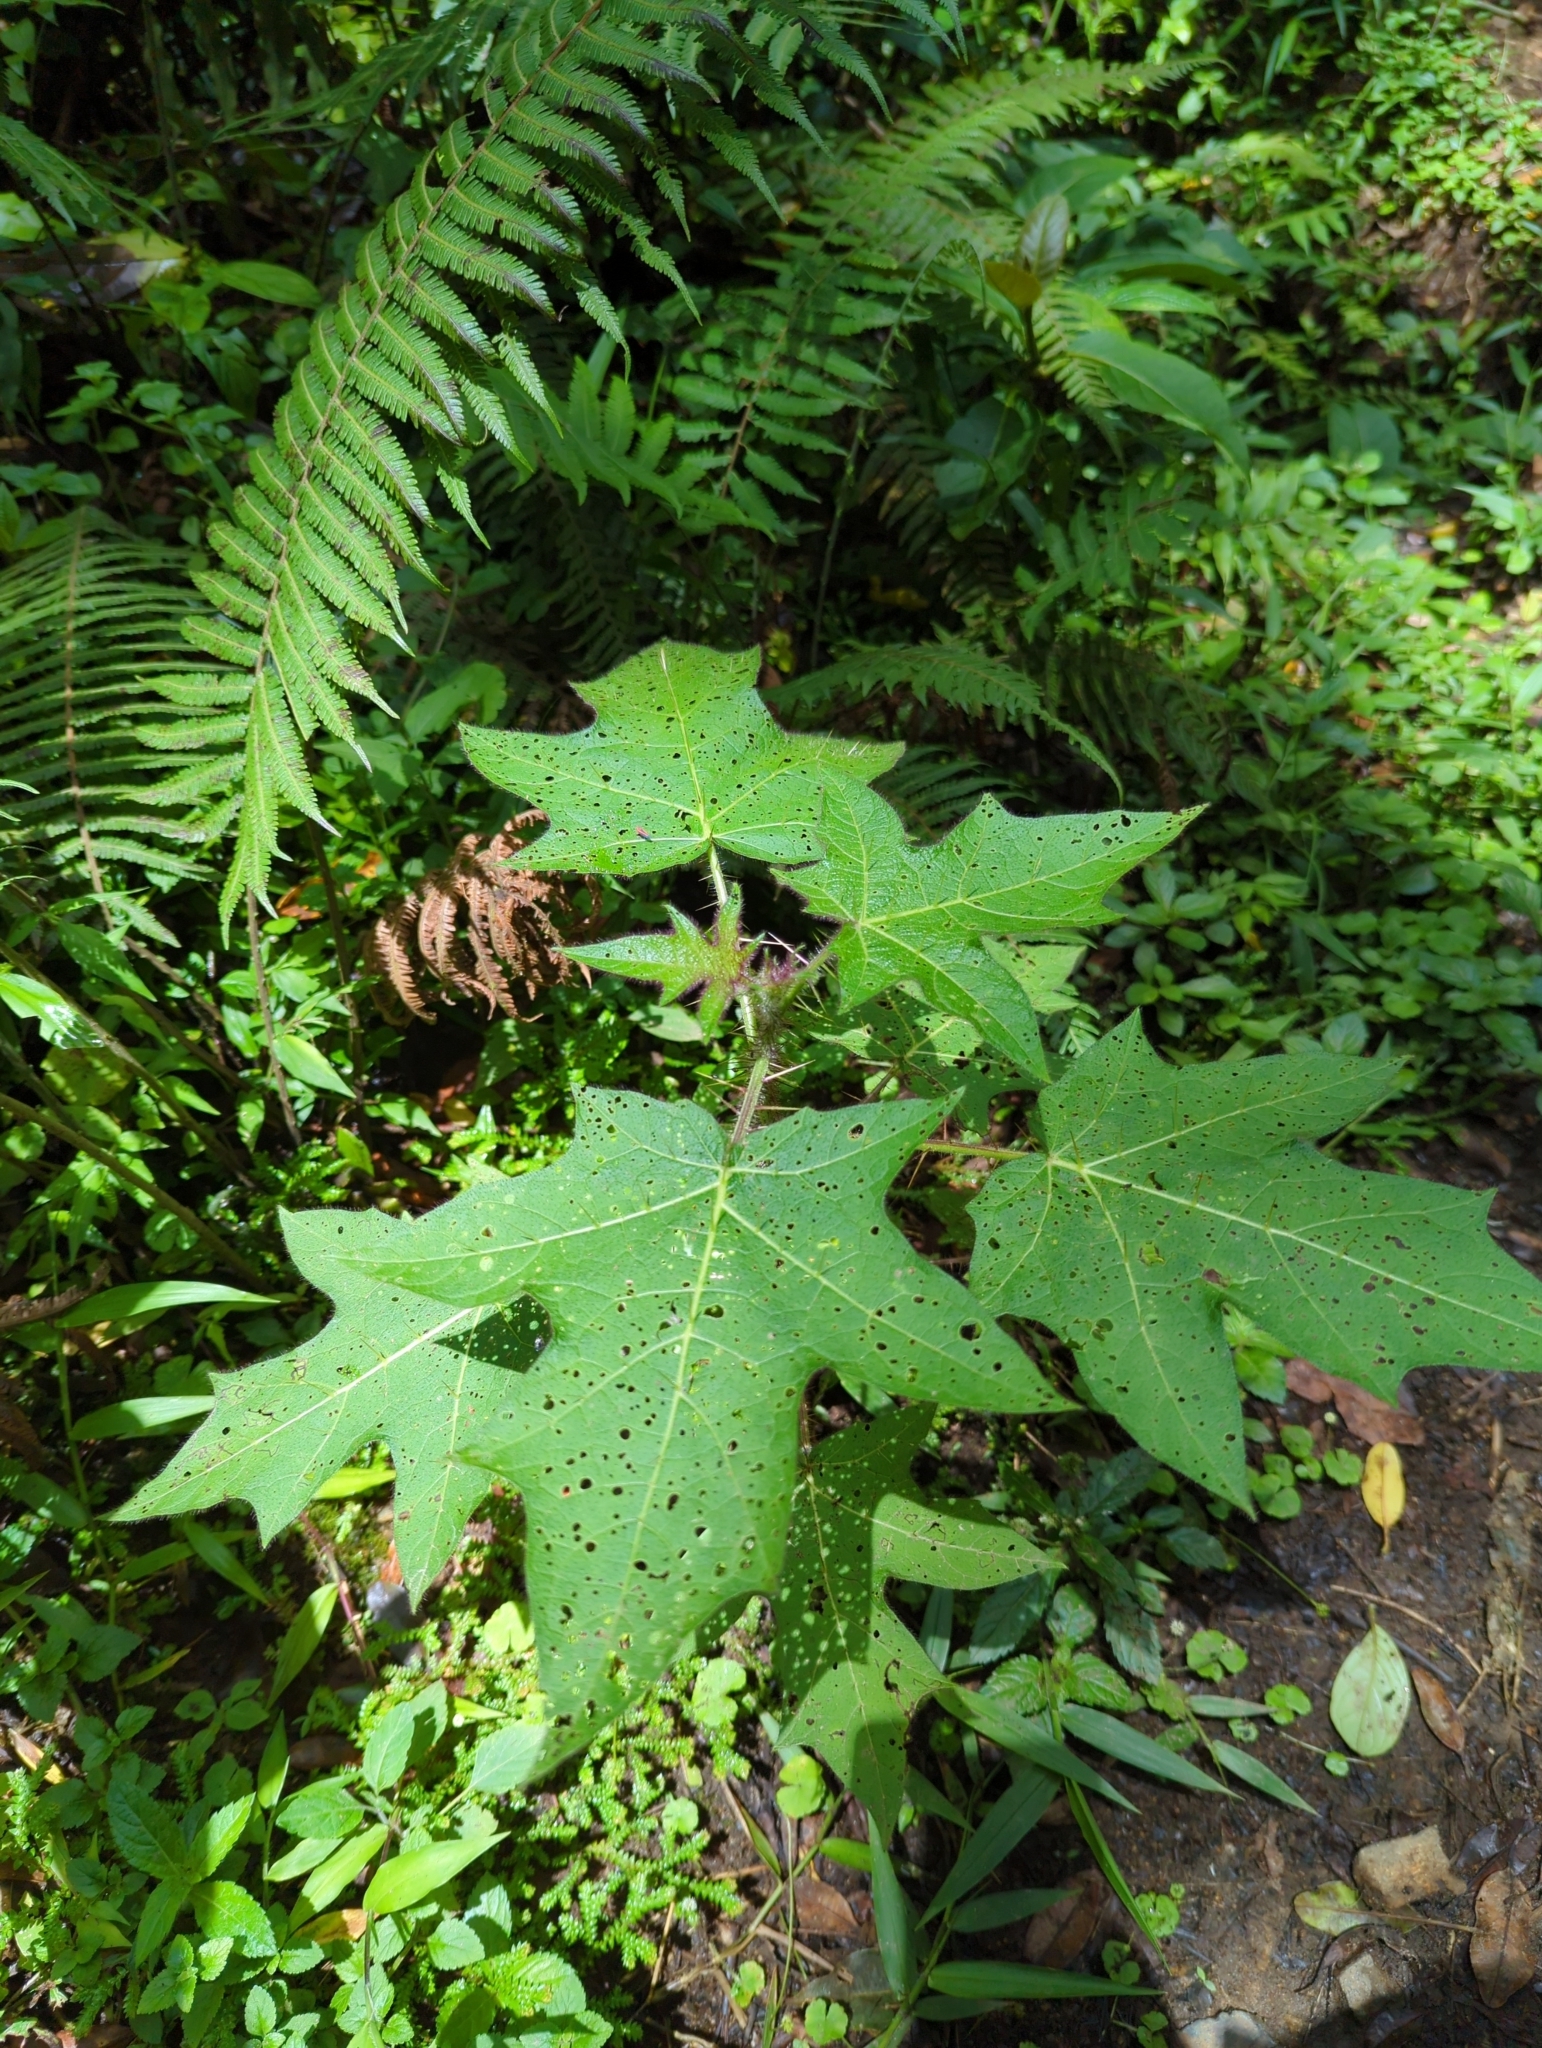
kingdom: Plantae
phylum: Tracheophyta
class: Magnoliopsida
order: Solanales
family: Solanaceae
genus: Solanum
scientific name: Solanum acerifolium
